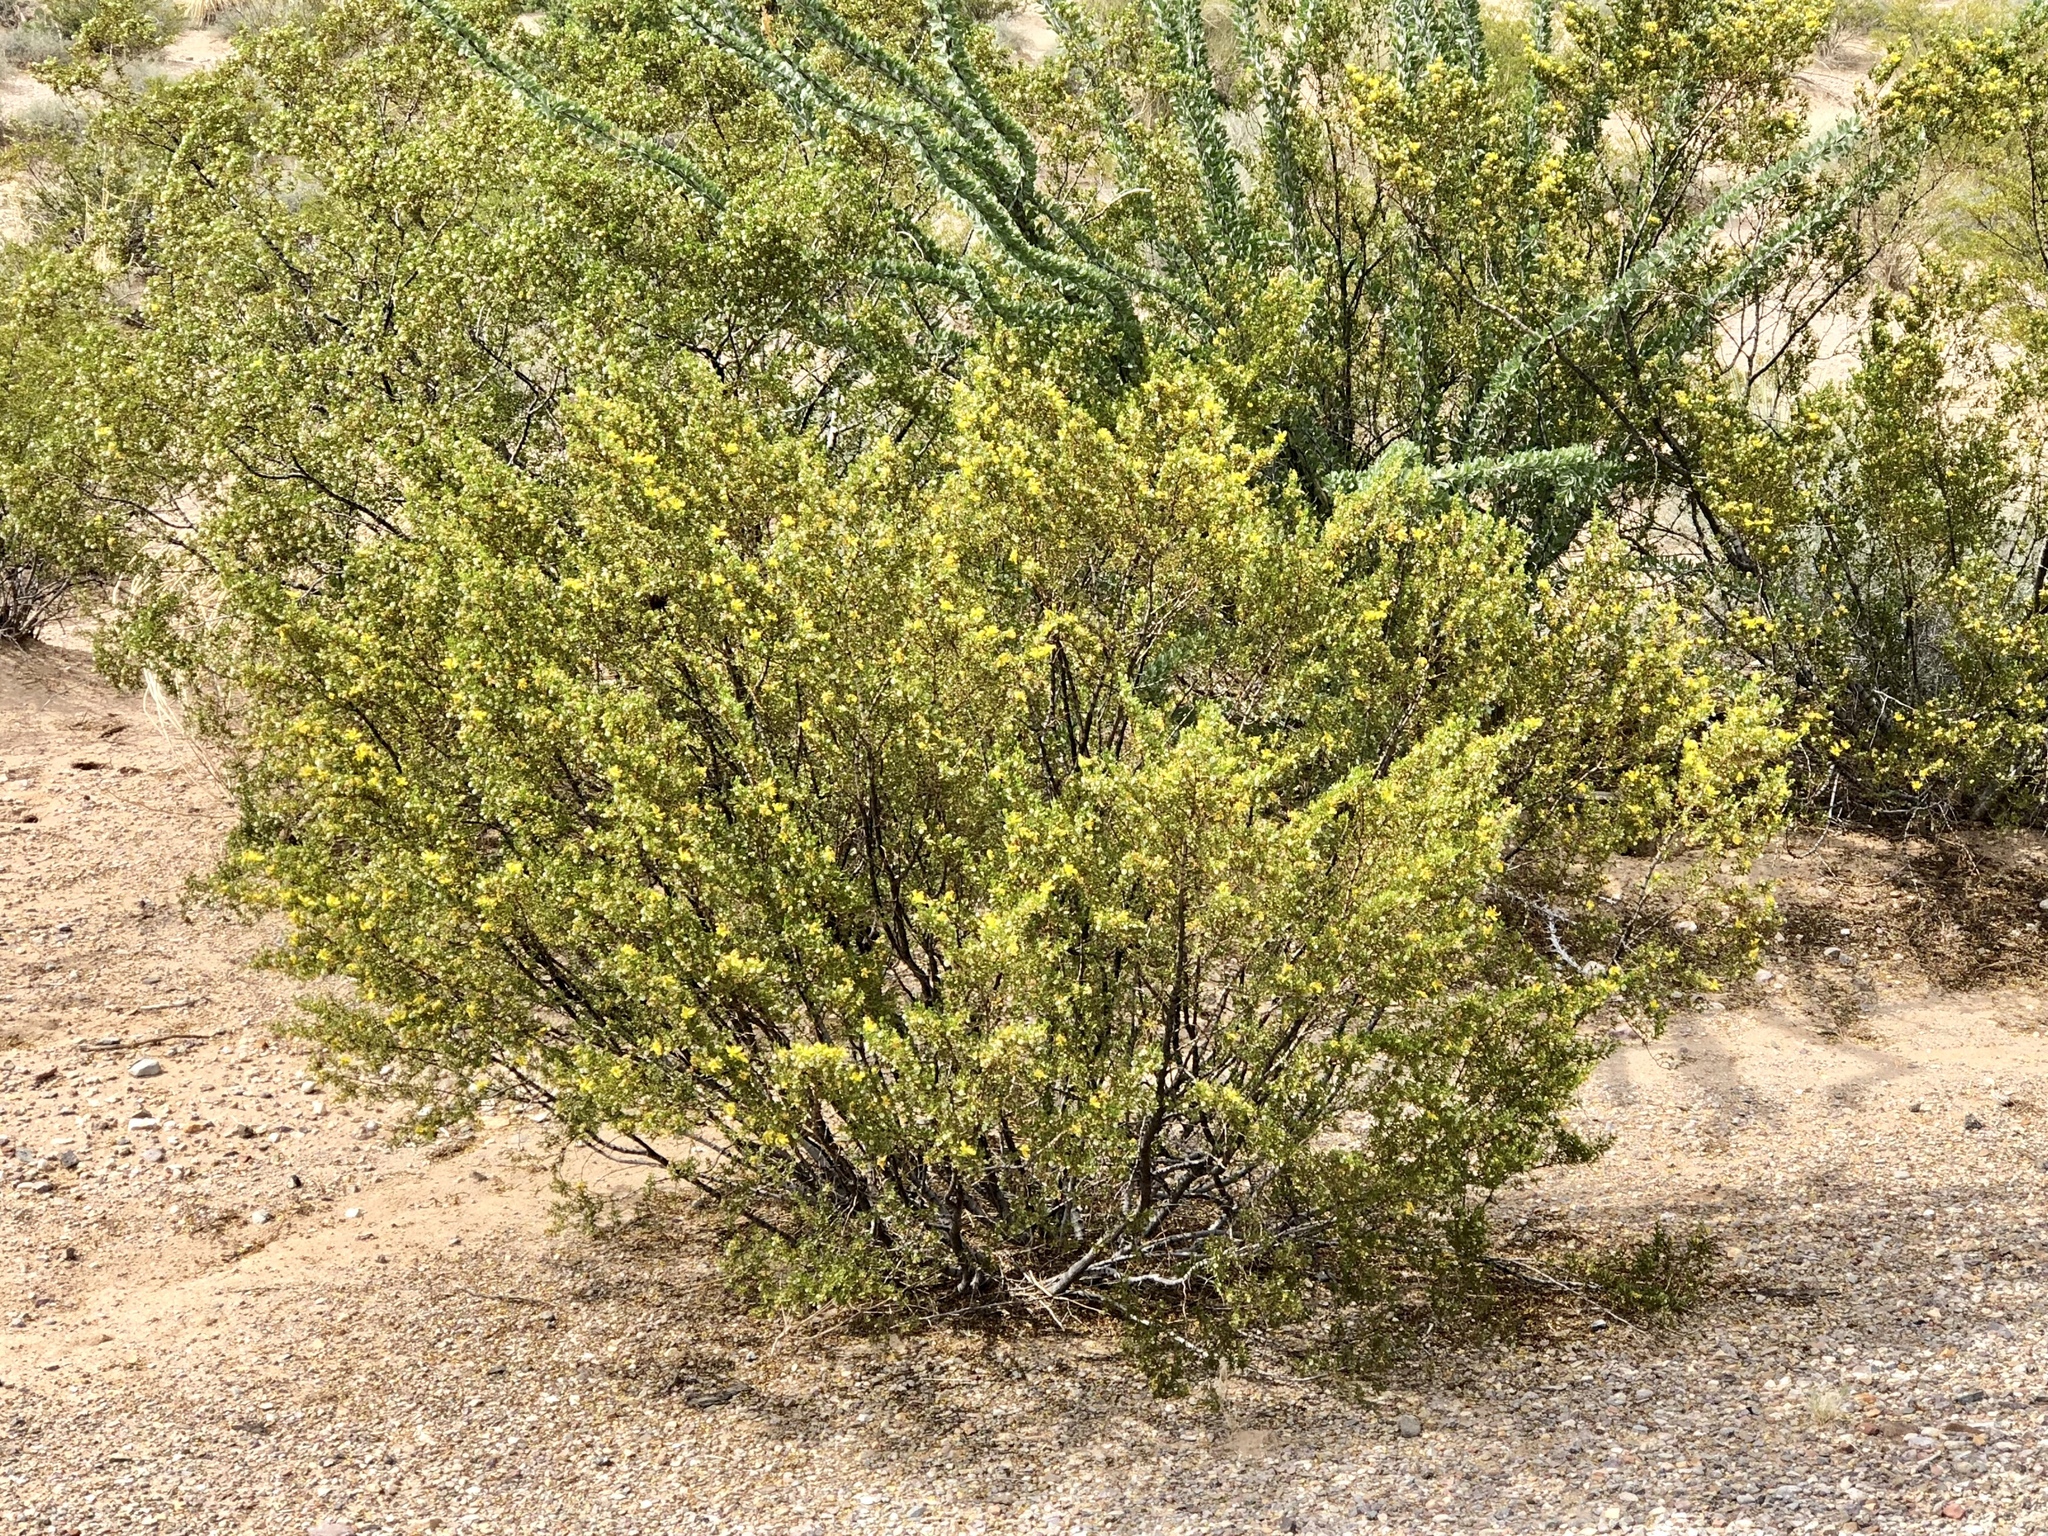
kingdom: Plantae
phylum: Tracheophyta
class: Magnoliopsida
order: Zygophyllales
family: Zygophyllaceae
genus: Larrea
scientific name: Larrea tridentata
